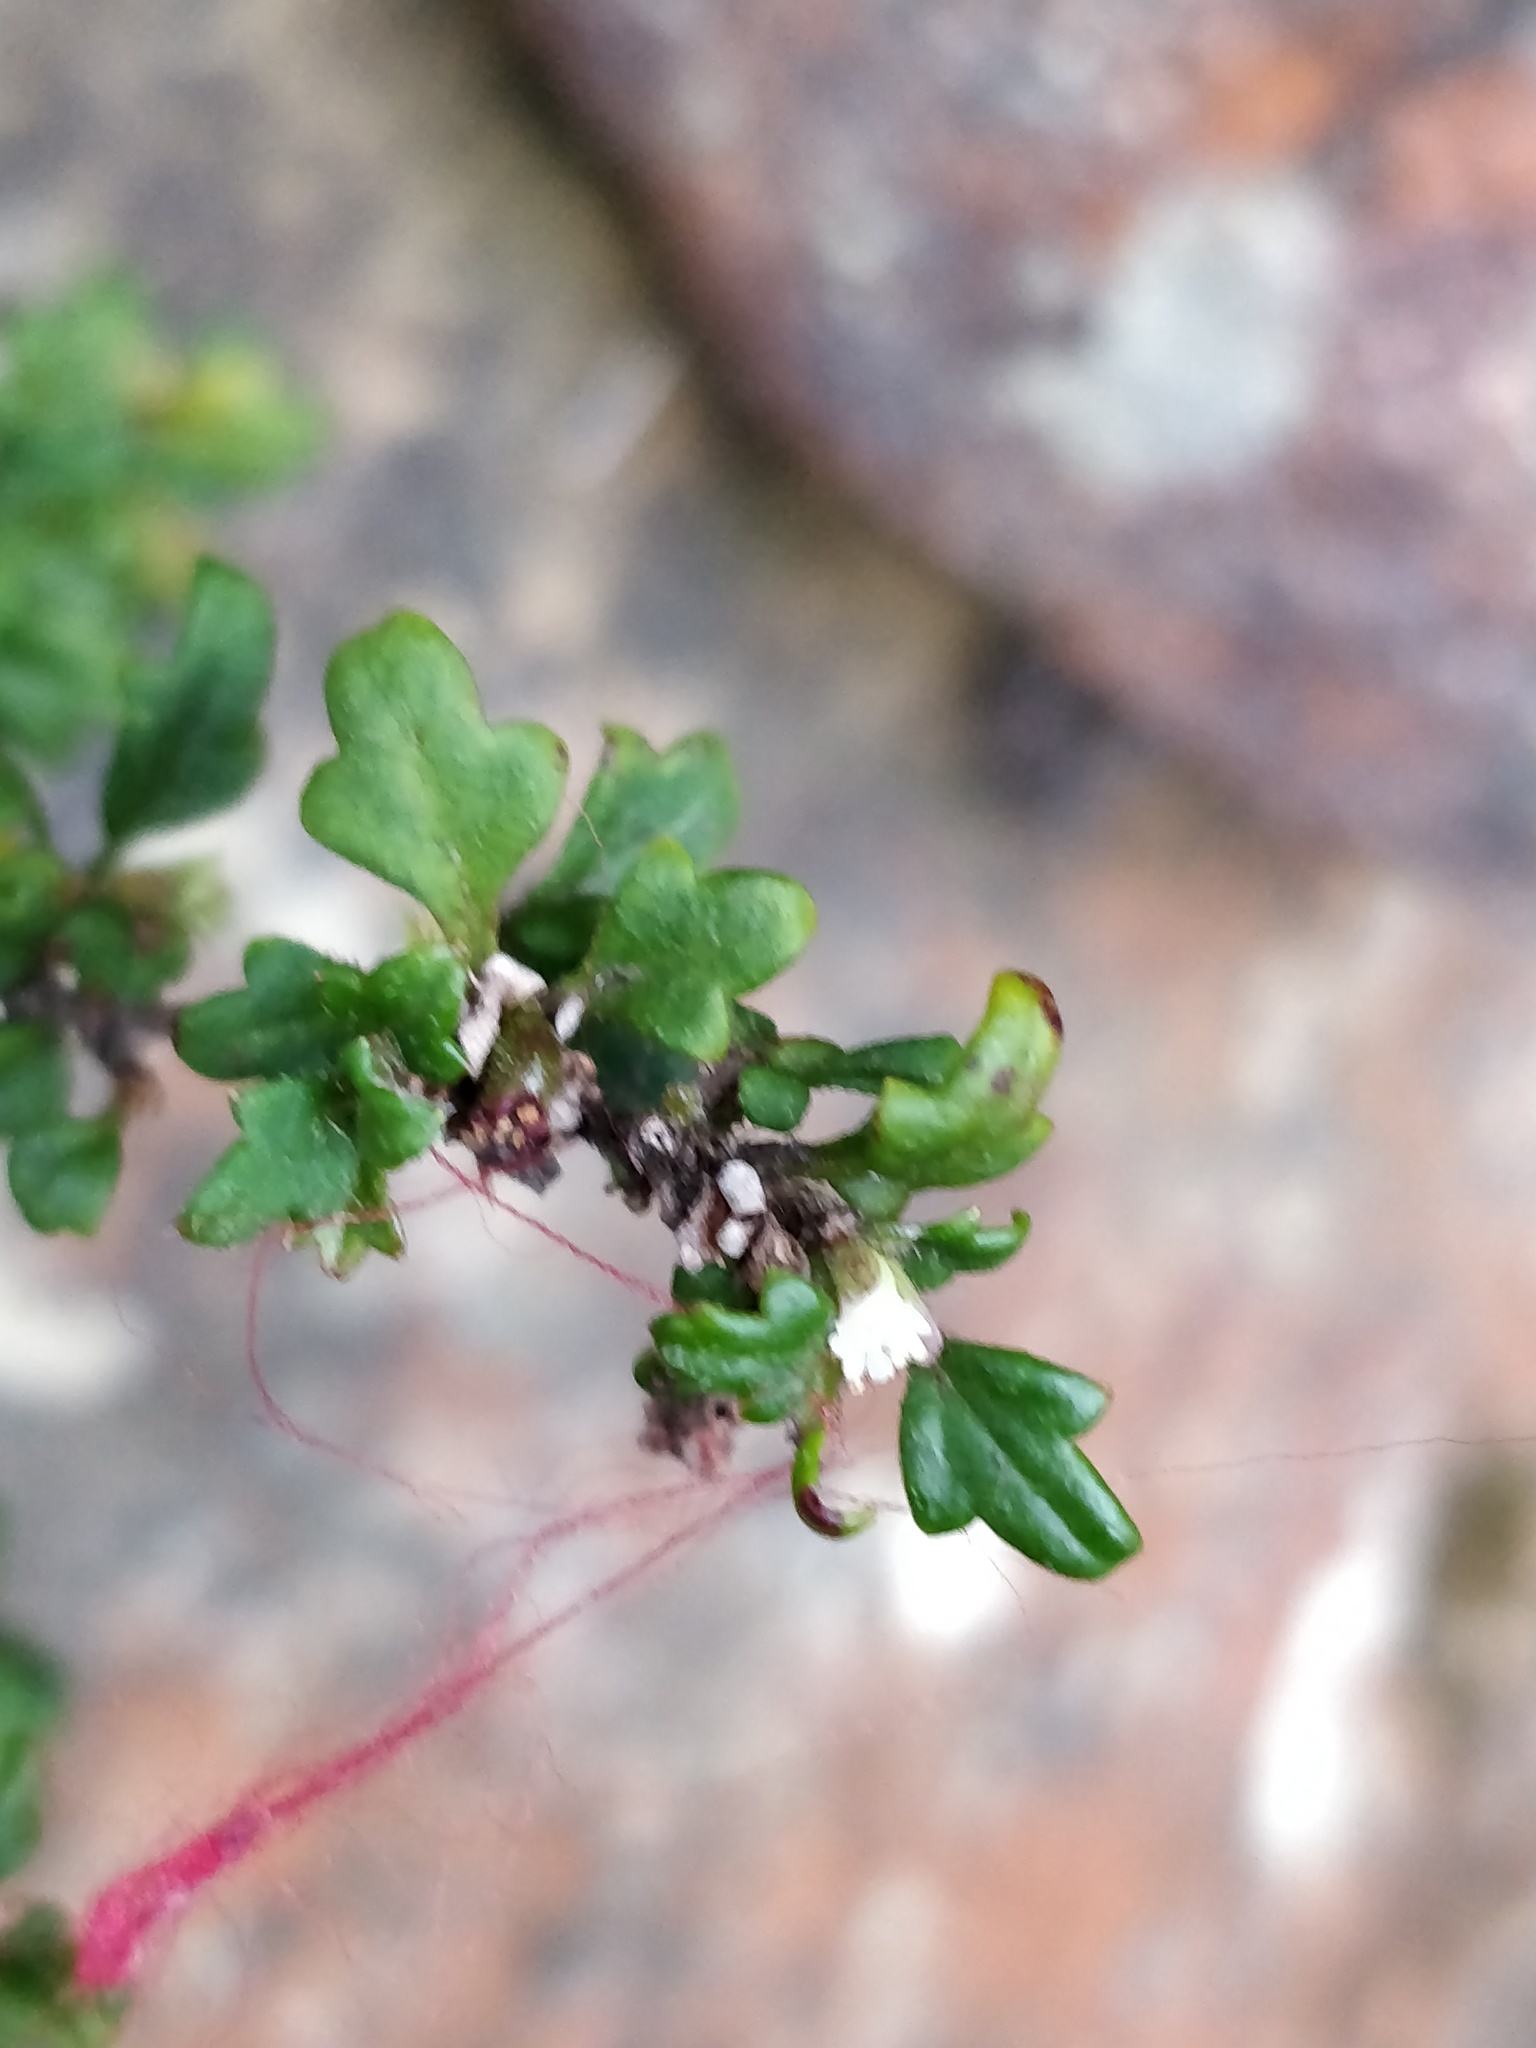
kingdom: Plantae
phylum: Tracheophyta
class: Magnoliopsida
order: Apiales
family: Apiaceae
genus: Xanthosia
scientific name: Xanthosia pilosa
